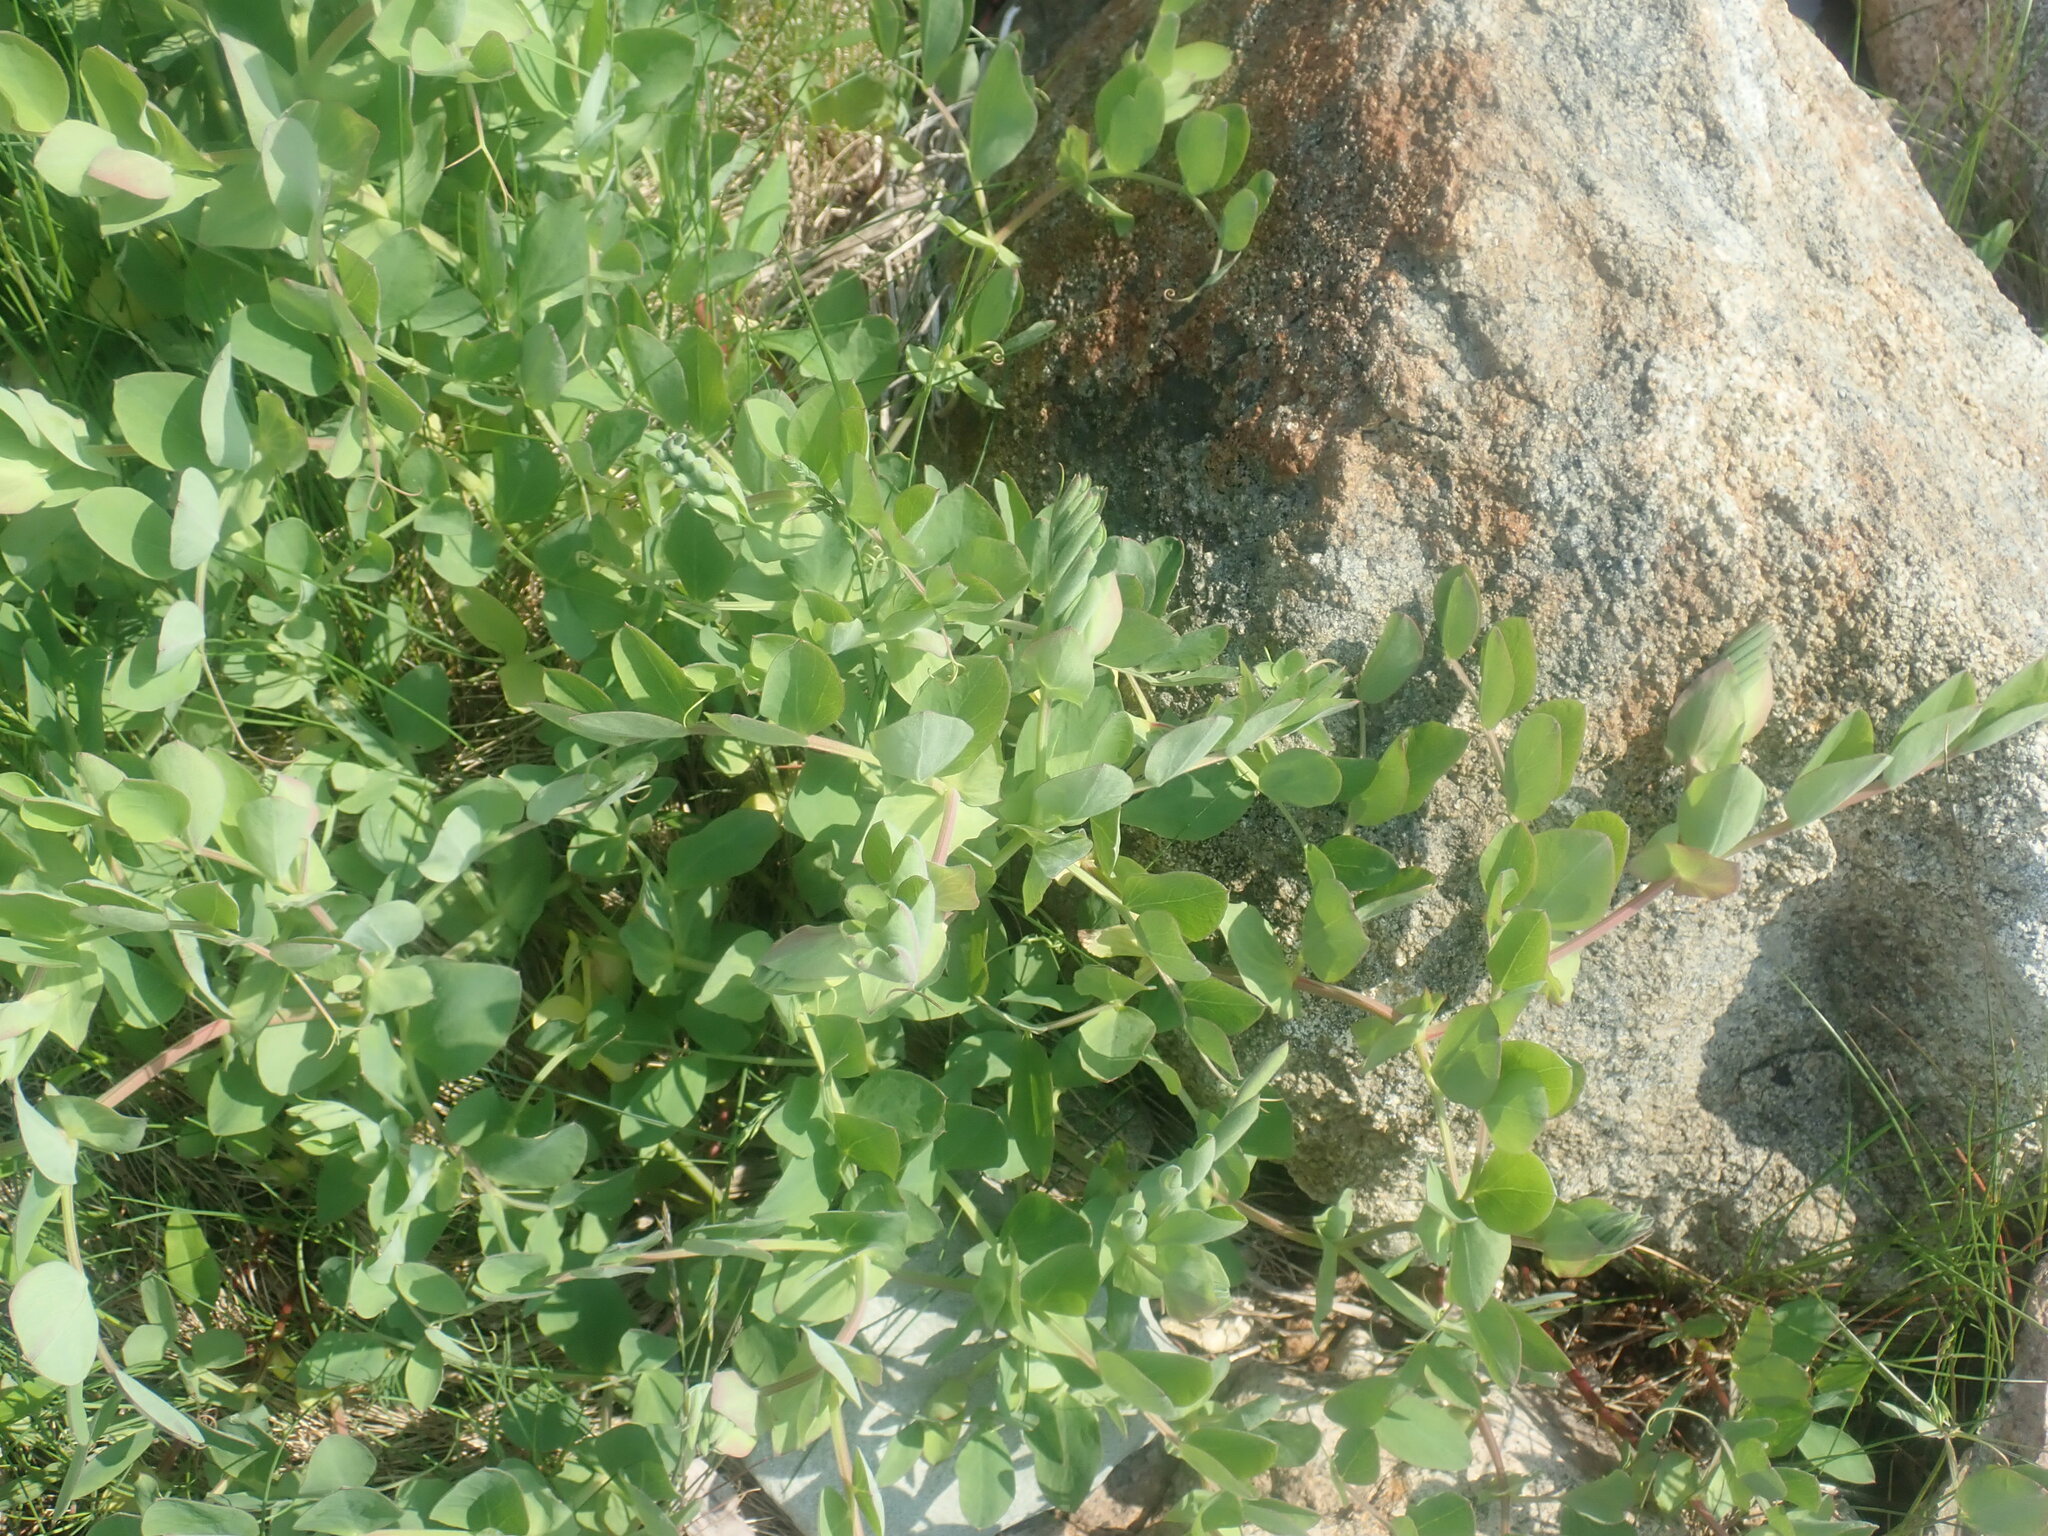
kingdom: Plantae
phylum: Tracheophyta
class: Magnoliopsida
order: Fabales
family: Fabaceae
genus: Lathyrus
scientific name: Lathyrus japonicus
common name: Sea pea
